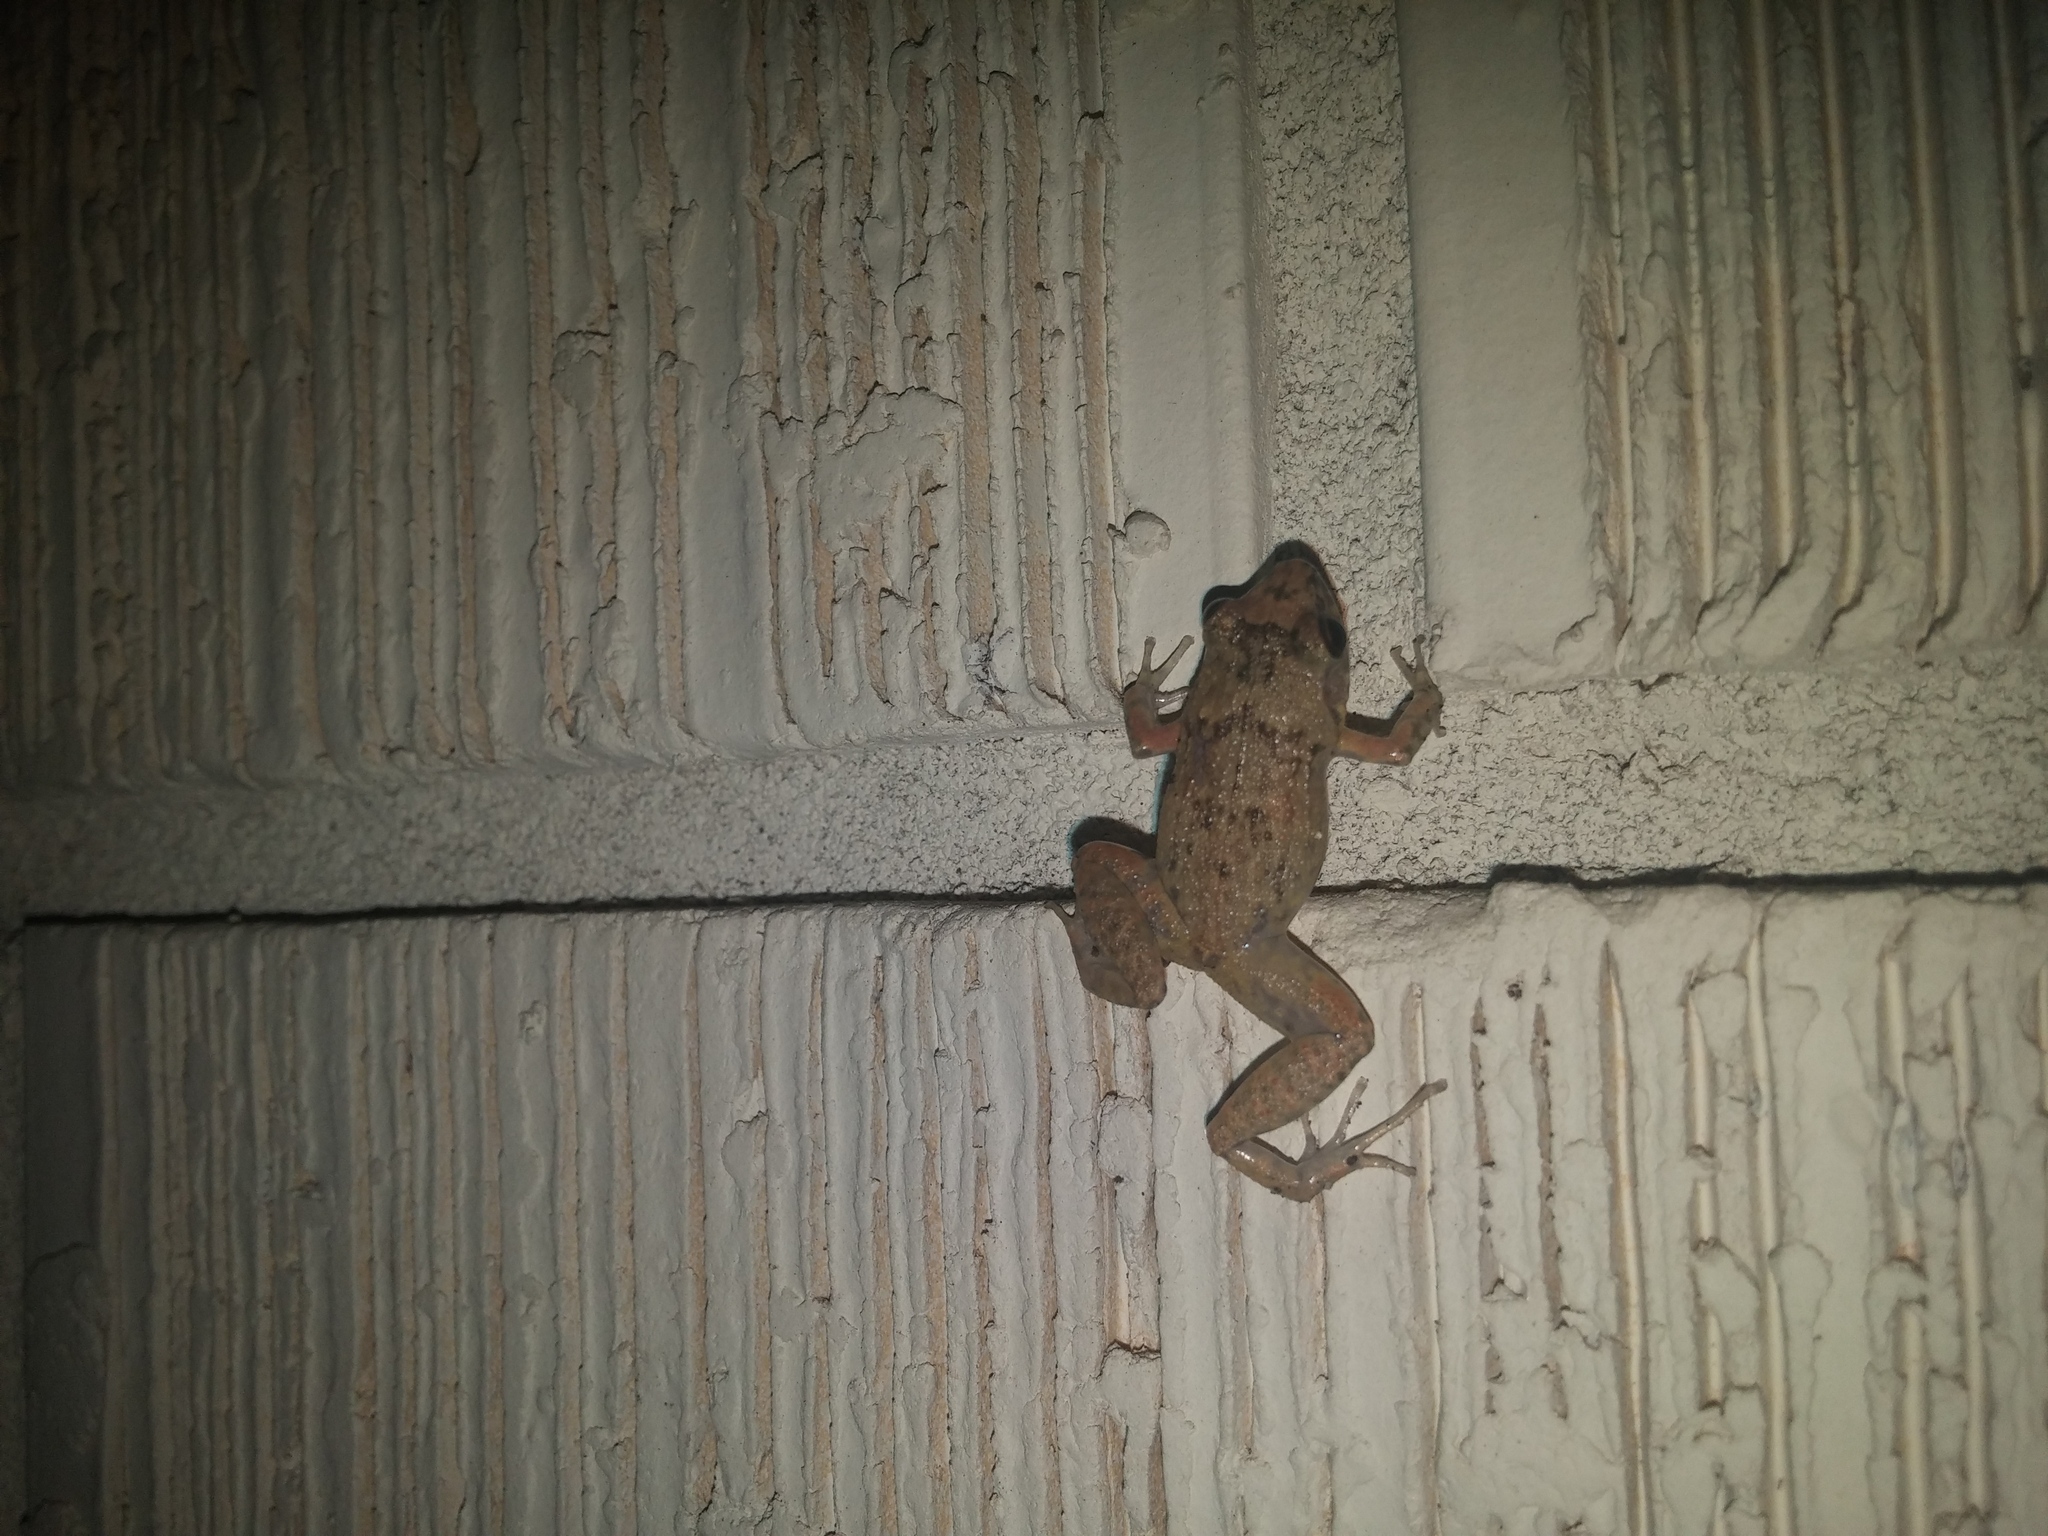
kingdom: Animalia
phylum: Chordata
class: Amphibia
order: Anura
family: Eleutherodactylidae
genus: Eleutherodactylus
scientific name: Eleutherodactylus planirostris
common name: Greenhouse frog
